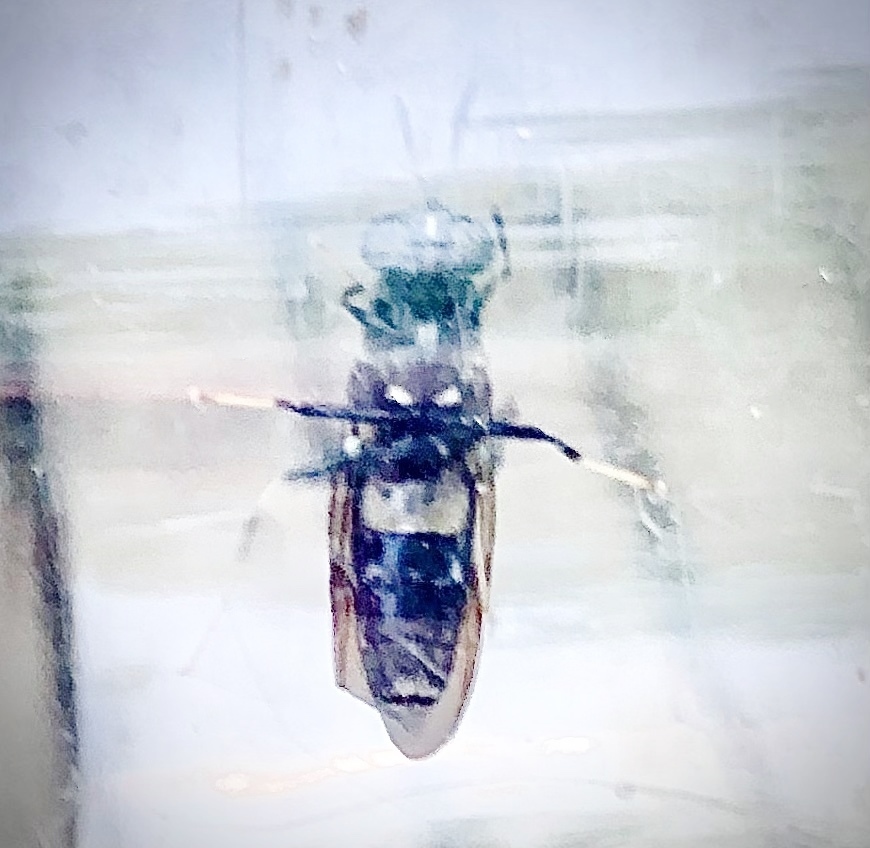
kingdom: Animalia
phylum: Arthropoda
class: Insecta
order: Diptera
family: Stratiomyidae
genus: Hermetia
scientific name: Hermetia illucens
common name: Black soldier fly
